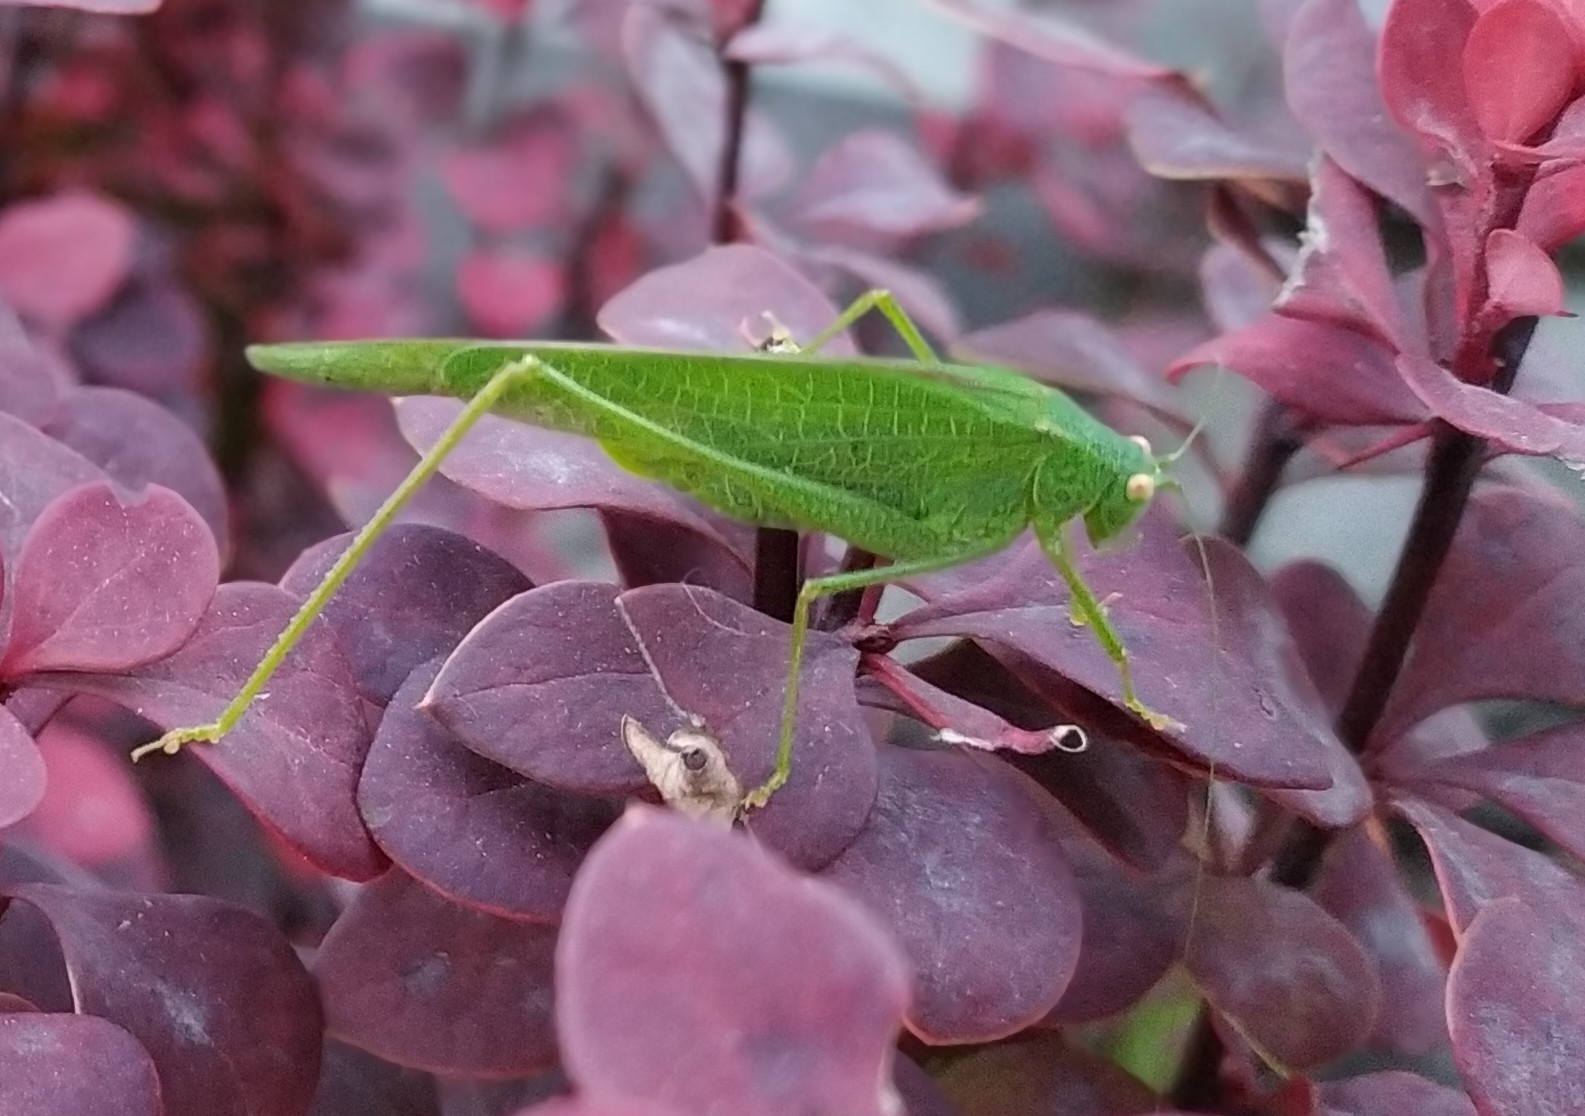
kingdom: Animalia
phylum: Arthropoda
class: Insecta
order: Orthoptera
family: Tettigoniidae
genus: Phaneroptera
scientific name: Phaneroptera nana
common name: Southern sickle bush-cricket
